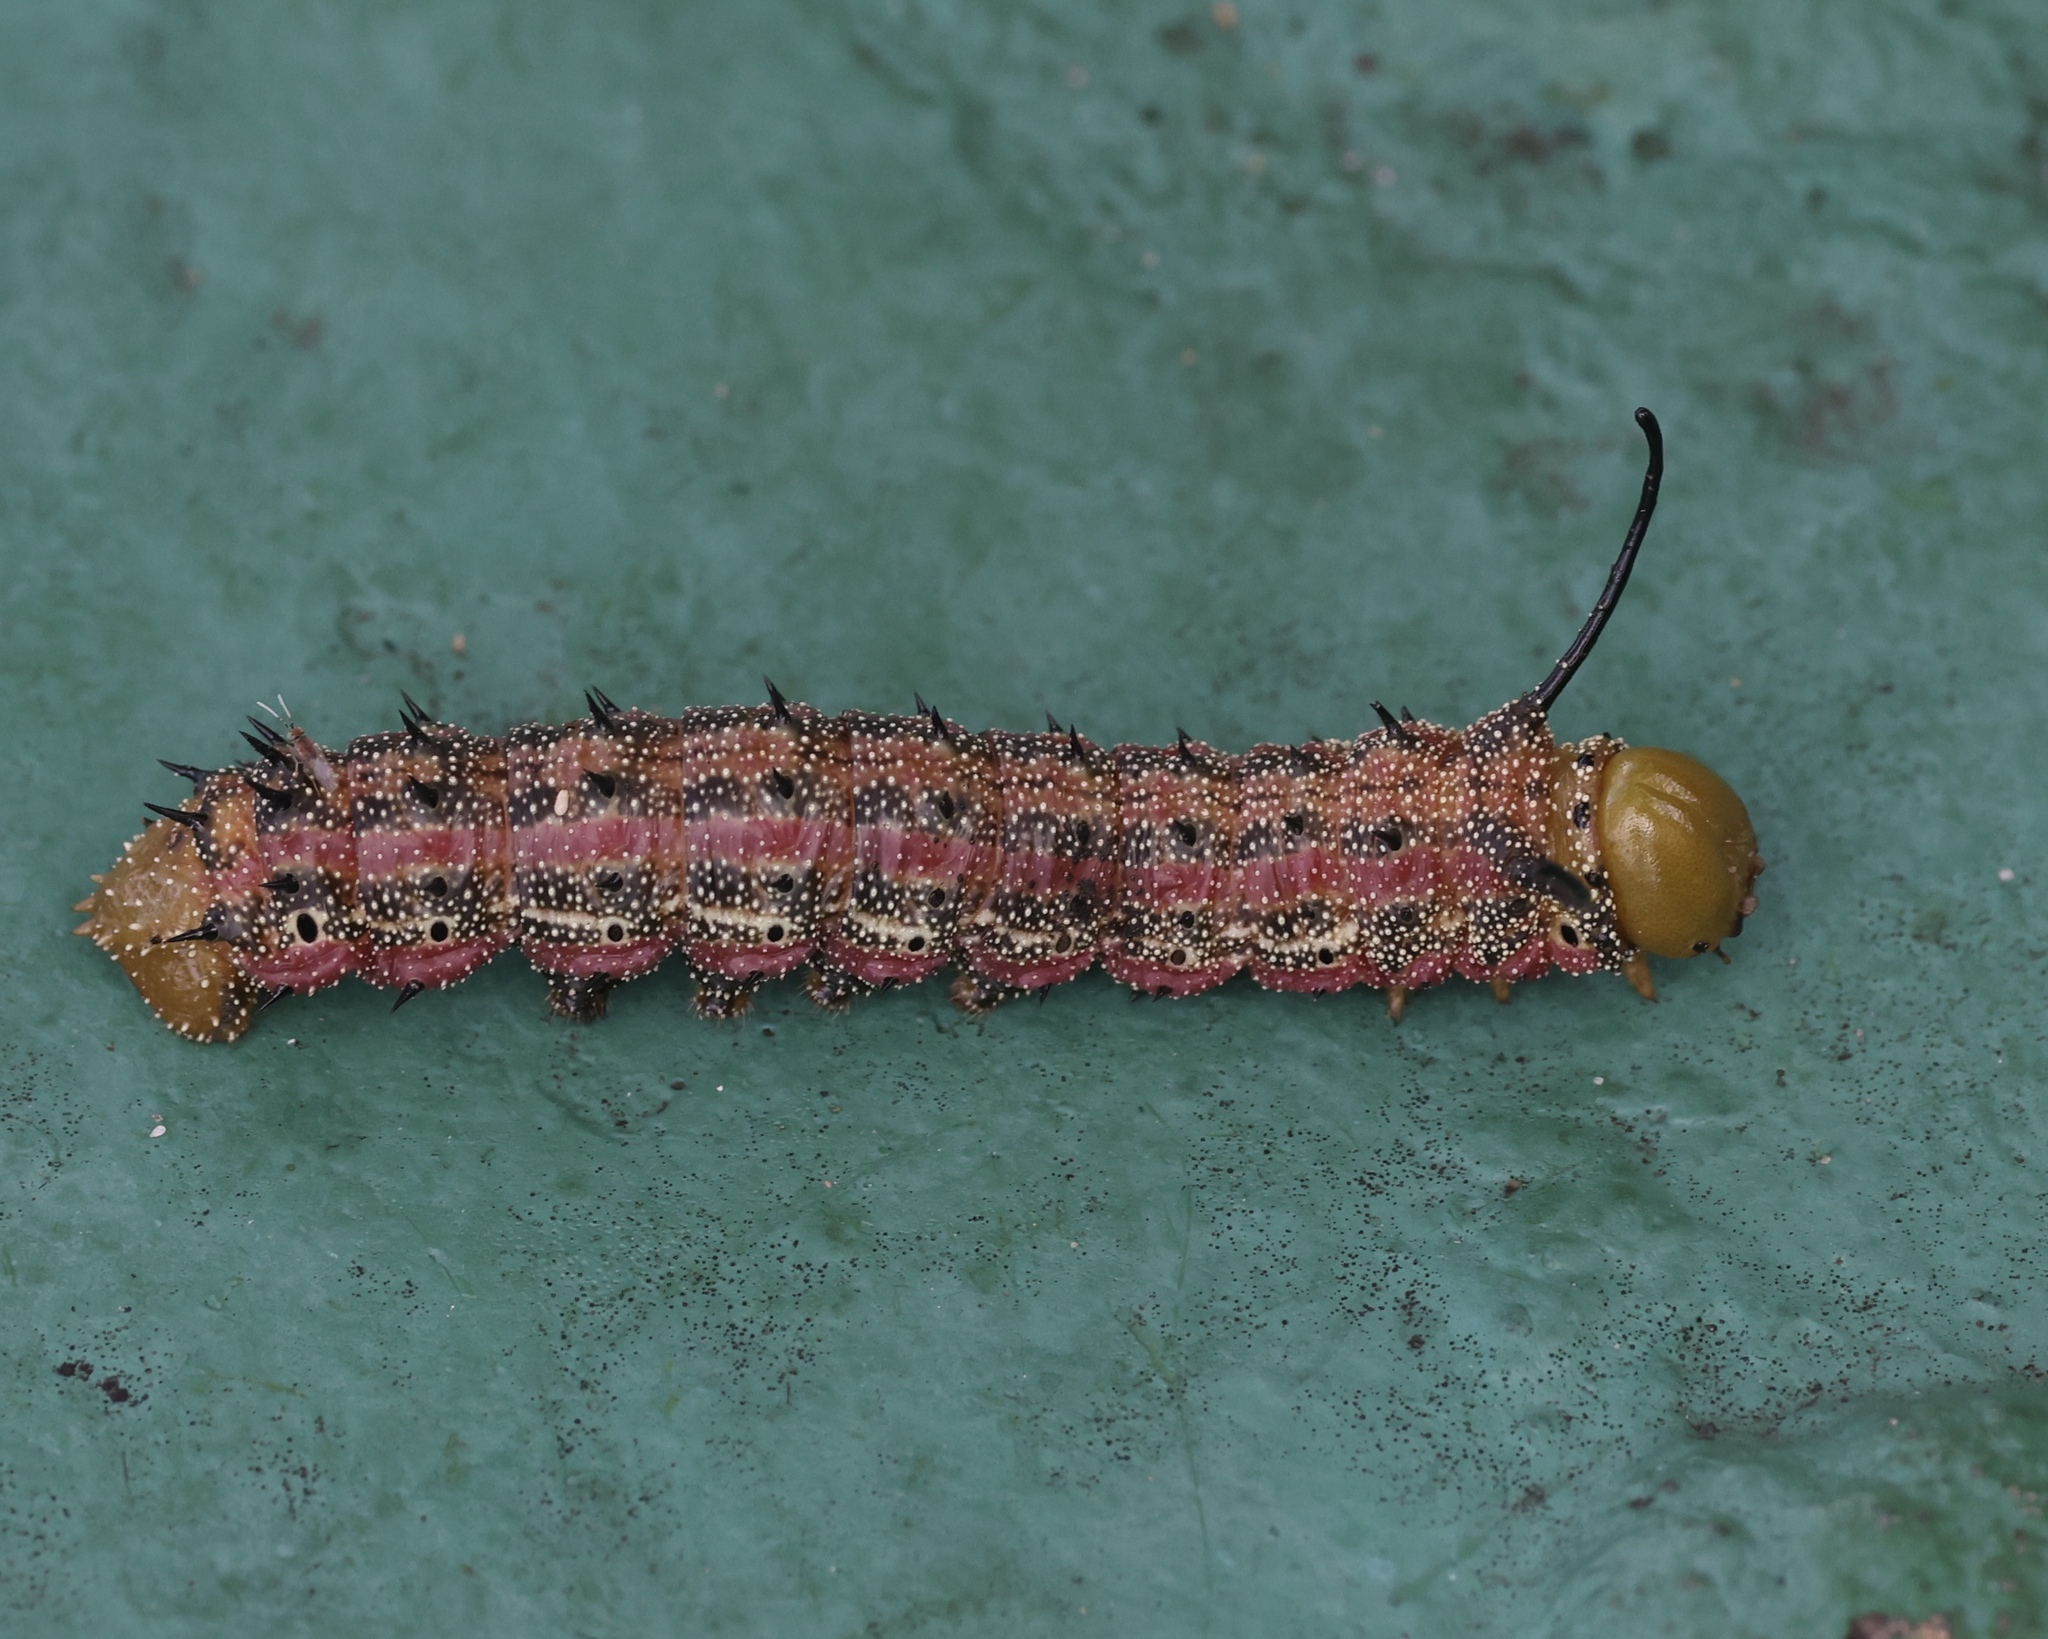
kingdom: Animalia
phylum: Arthropoda
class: Insecta
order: Lepidoptera
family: Saturniidae
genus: Anisota
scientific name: Anisota virginiensis
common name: Pink striped oakworm moth
